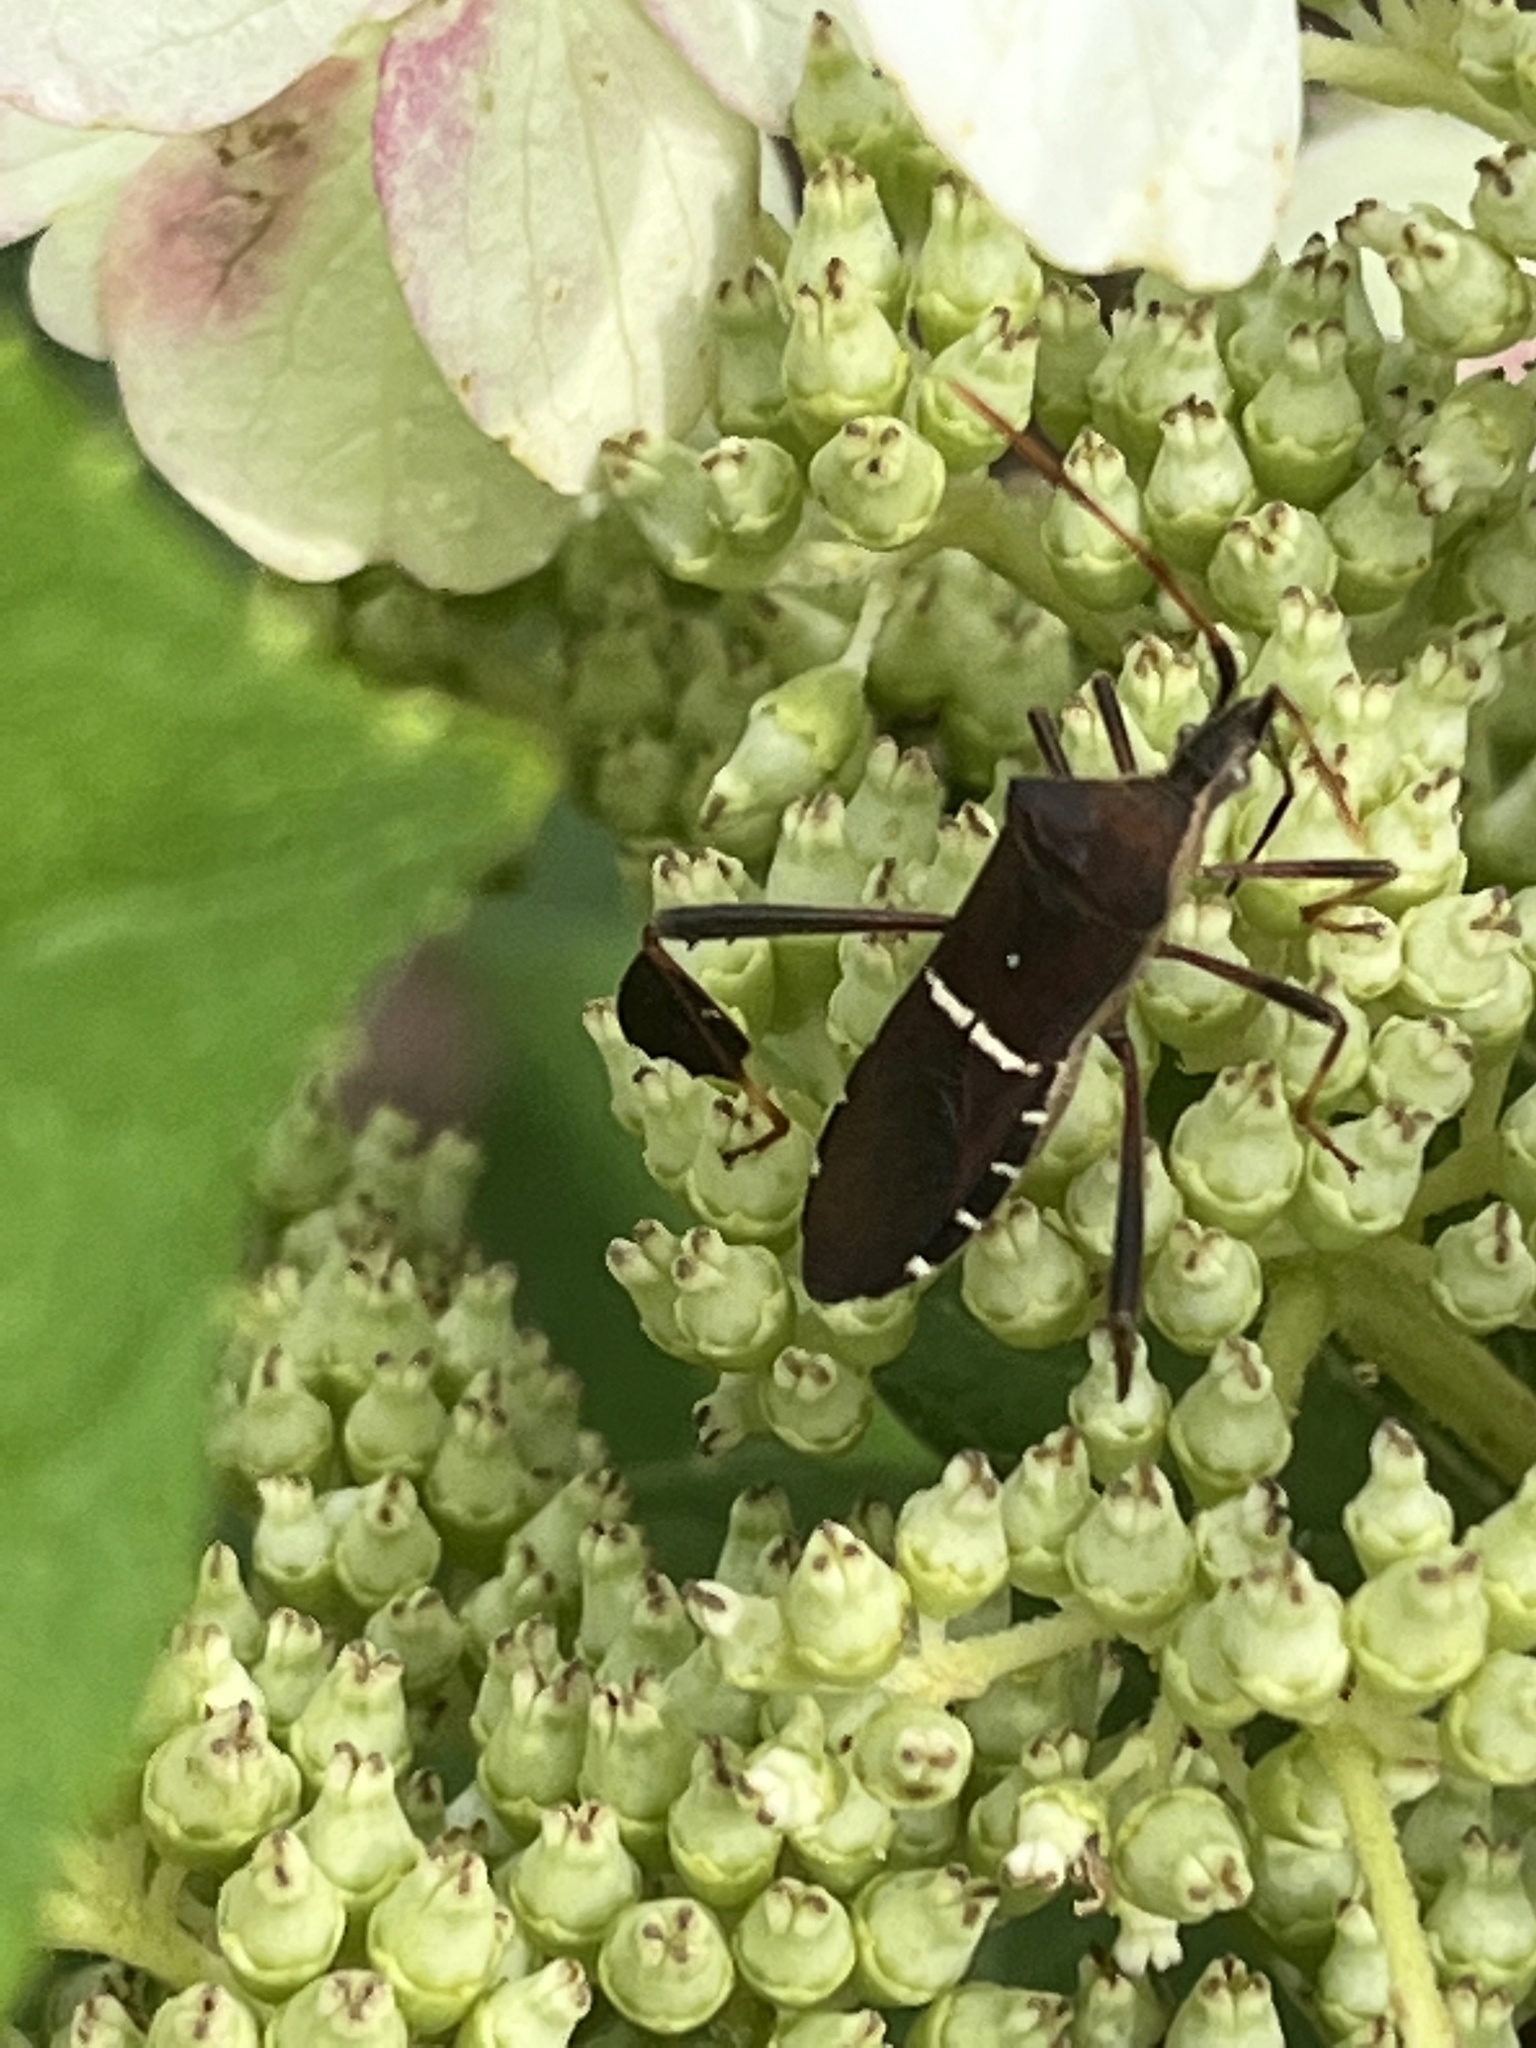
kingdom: Animalia
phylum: Arthropoda
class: Insecta
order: Hemiptera
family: Coreidae
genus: Leptoglossus
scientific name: Leptoglossus phyllopus
